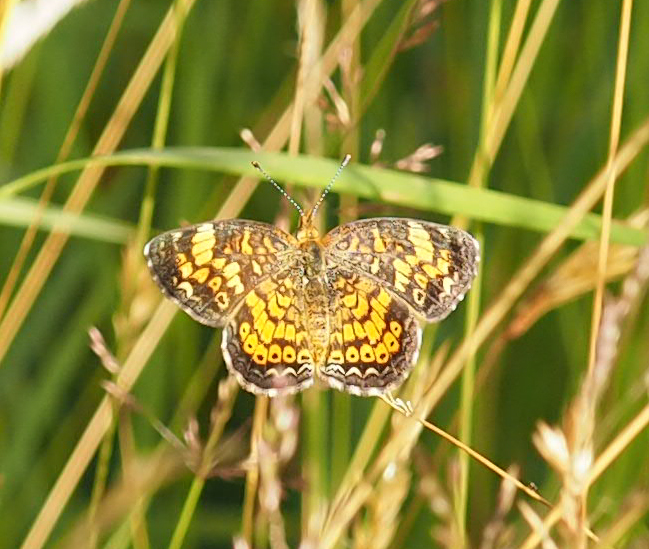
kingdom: Animalia
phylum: Arthropoda
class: Insecta
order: Lepidoptera
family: Nymphalidae
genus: Phyciodes
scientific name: Phyciodes tharos
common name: Pearl crescent
